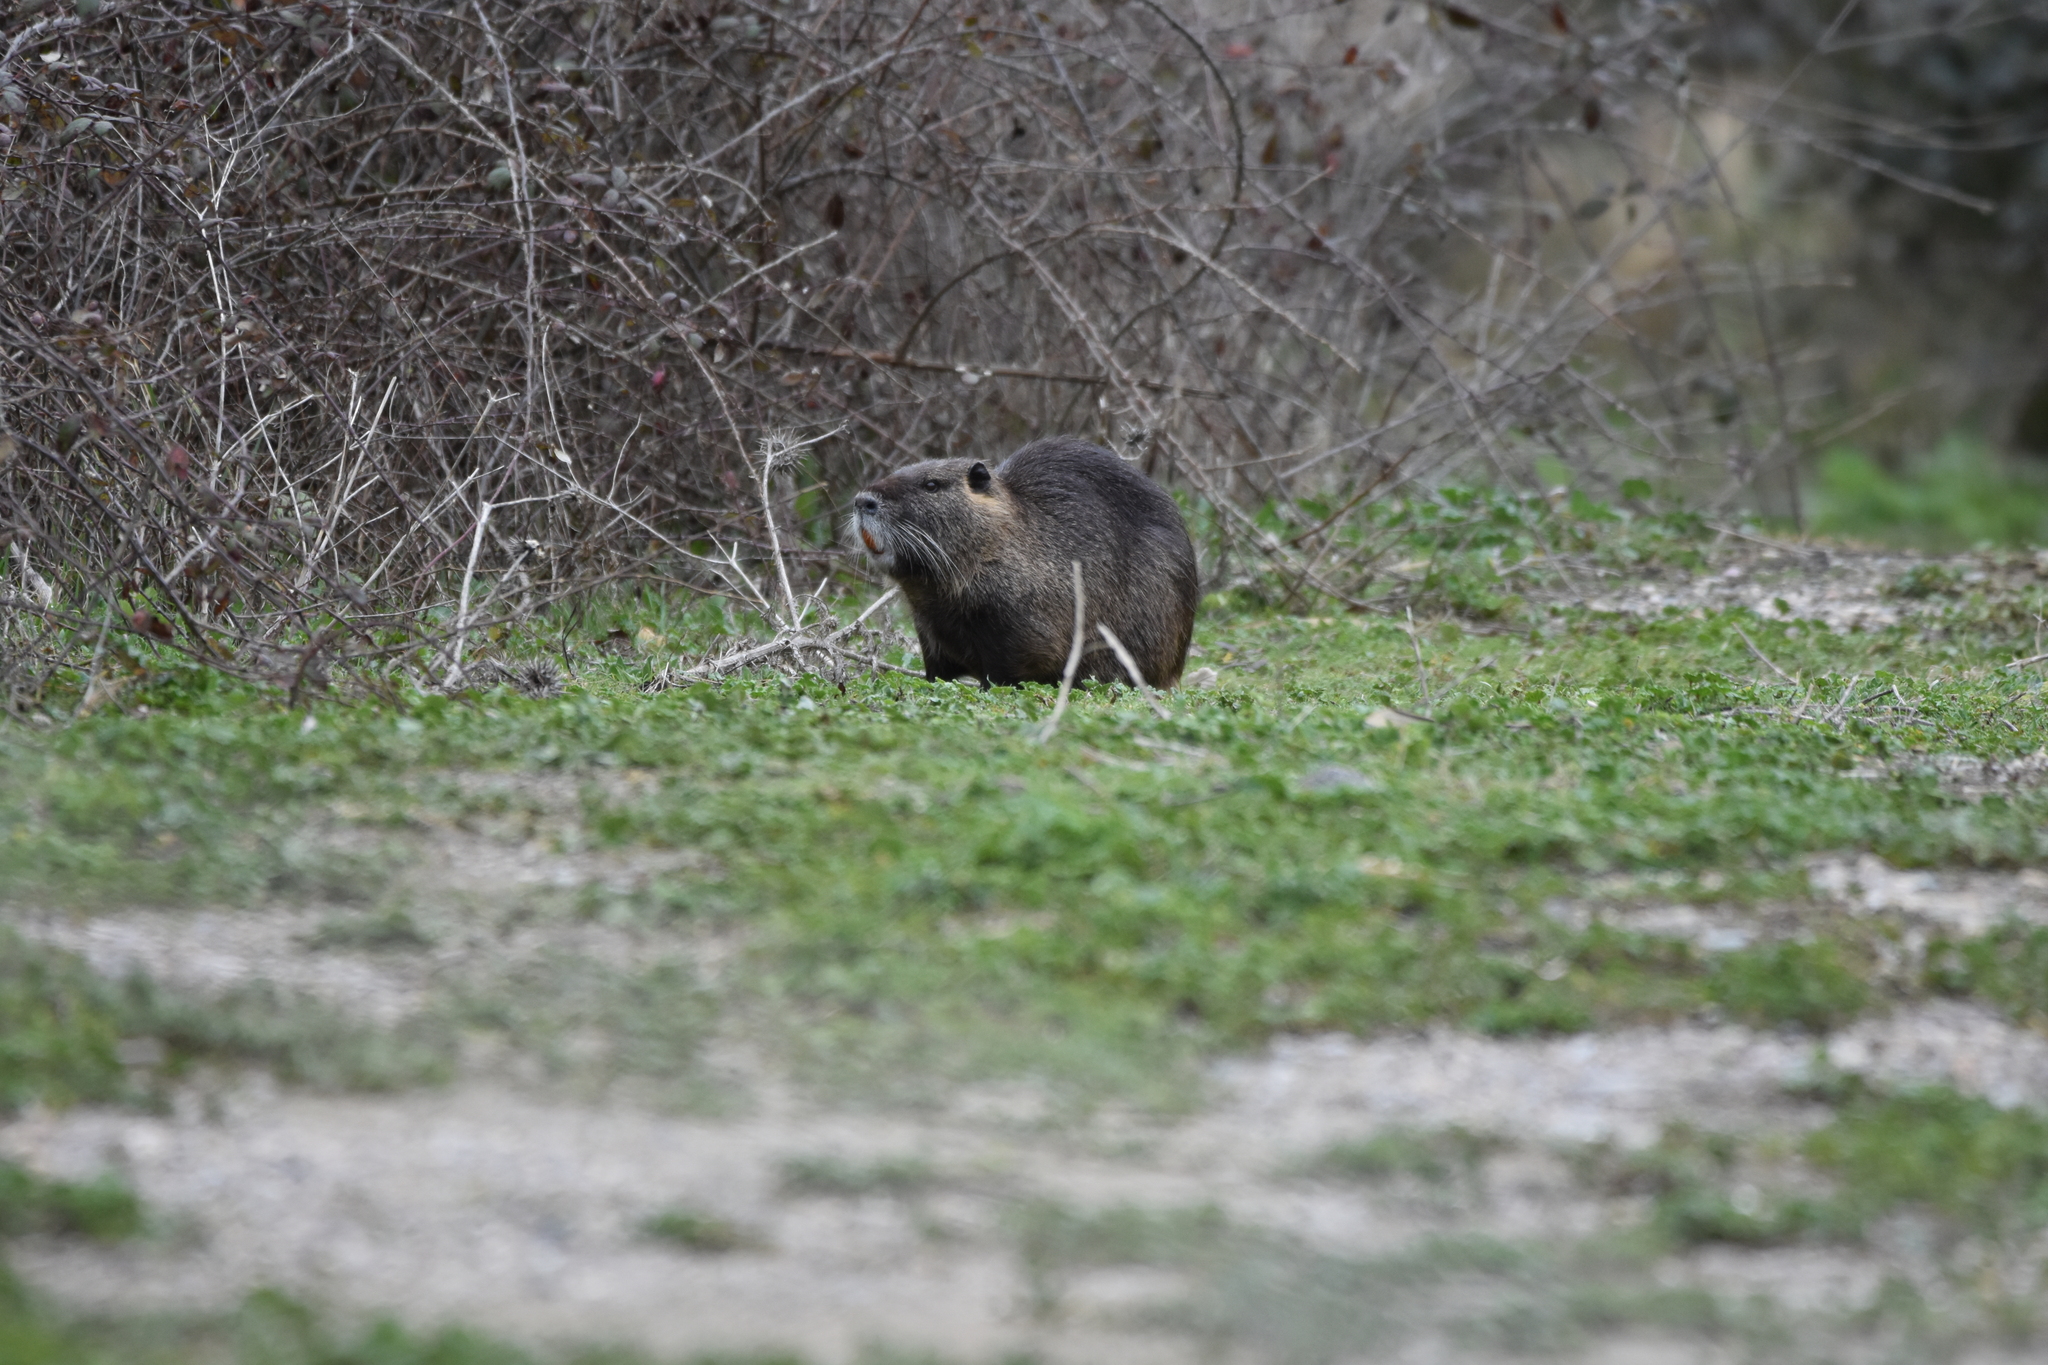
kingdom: Animalia
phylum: Chordata
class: Mammalia
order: Rodentia
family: Myocastoridae
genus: Myocastor
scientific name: Myocastor coypus
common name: Coypu
